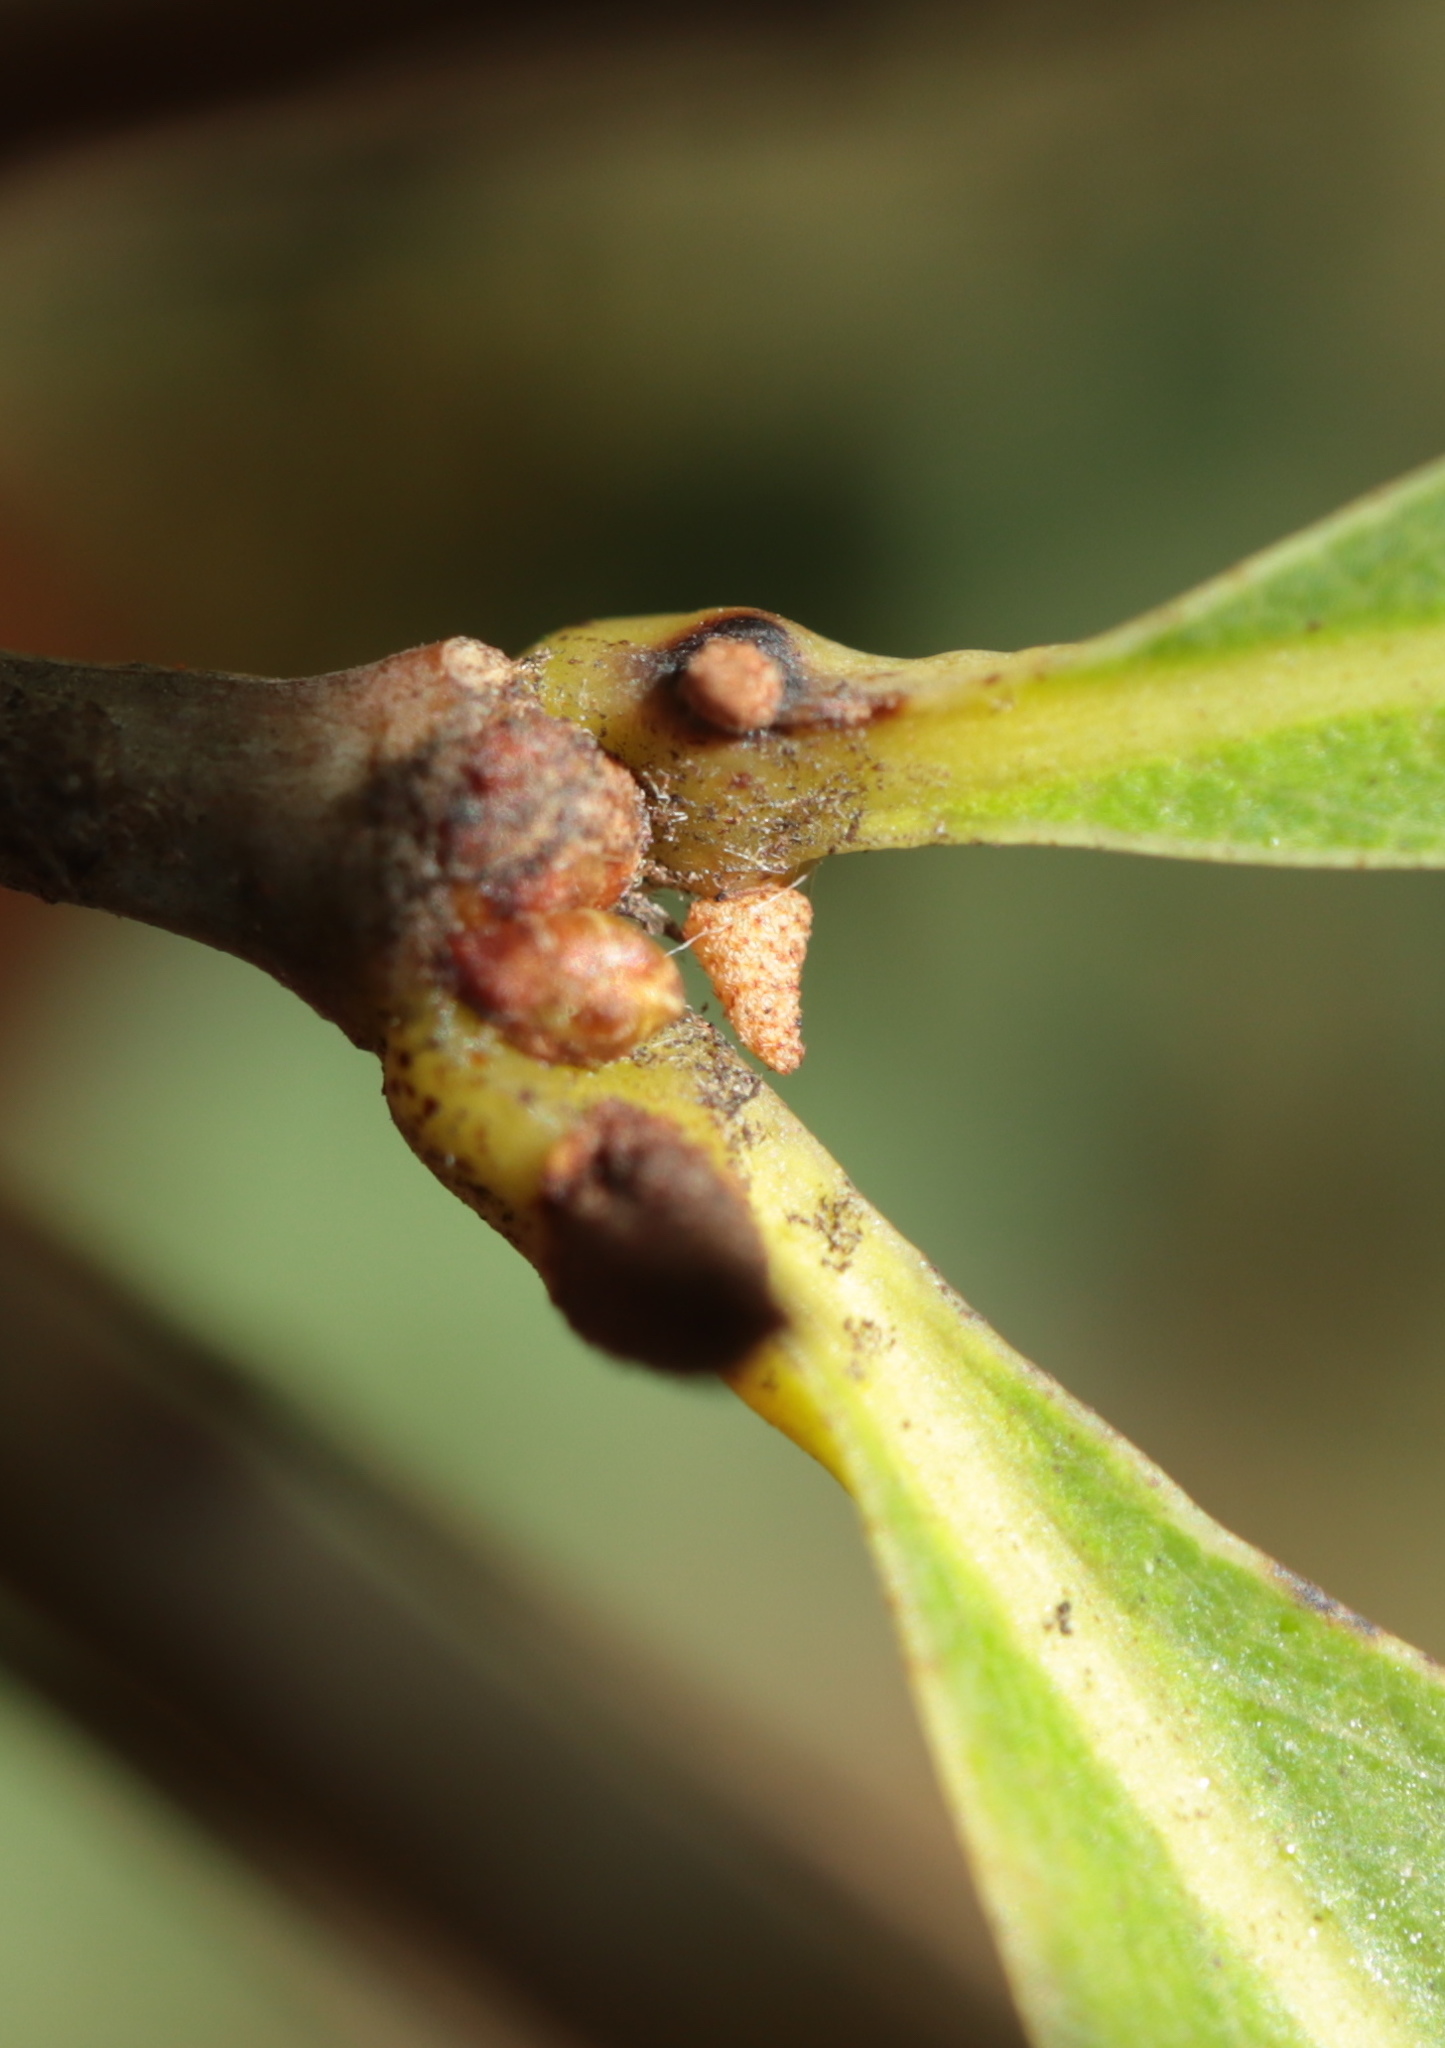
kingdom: Animalia
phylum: Arthropoda
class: Insecta
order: Hymenoptera
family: Cynipidae
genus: Zopheroteras
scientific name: Zopheroteras
